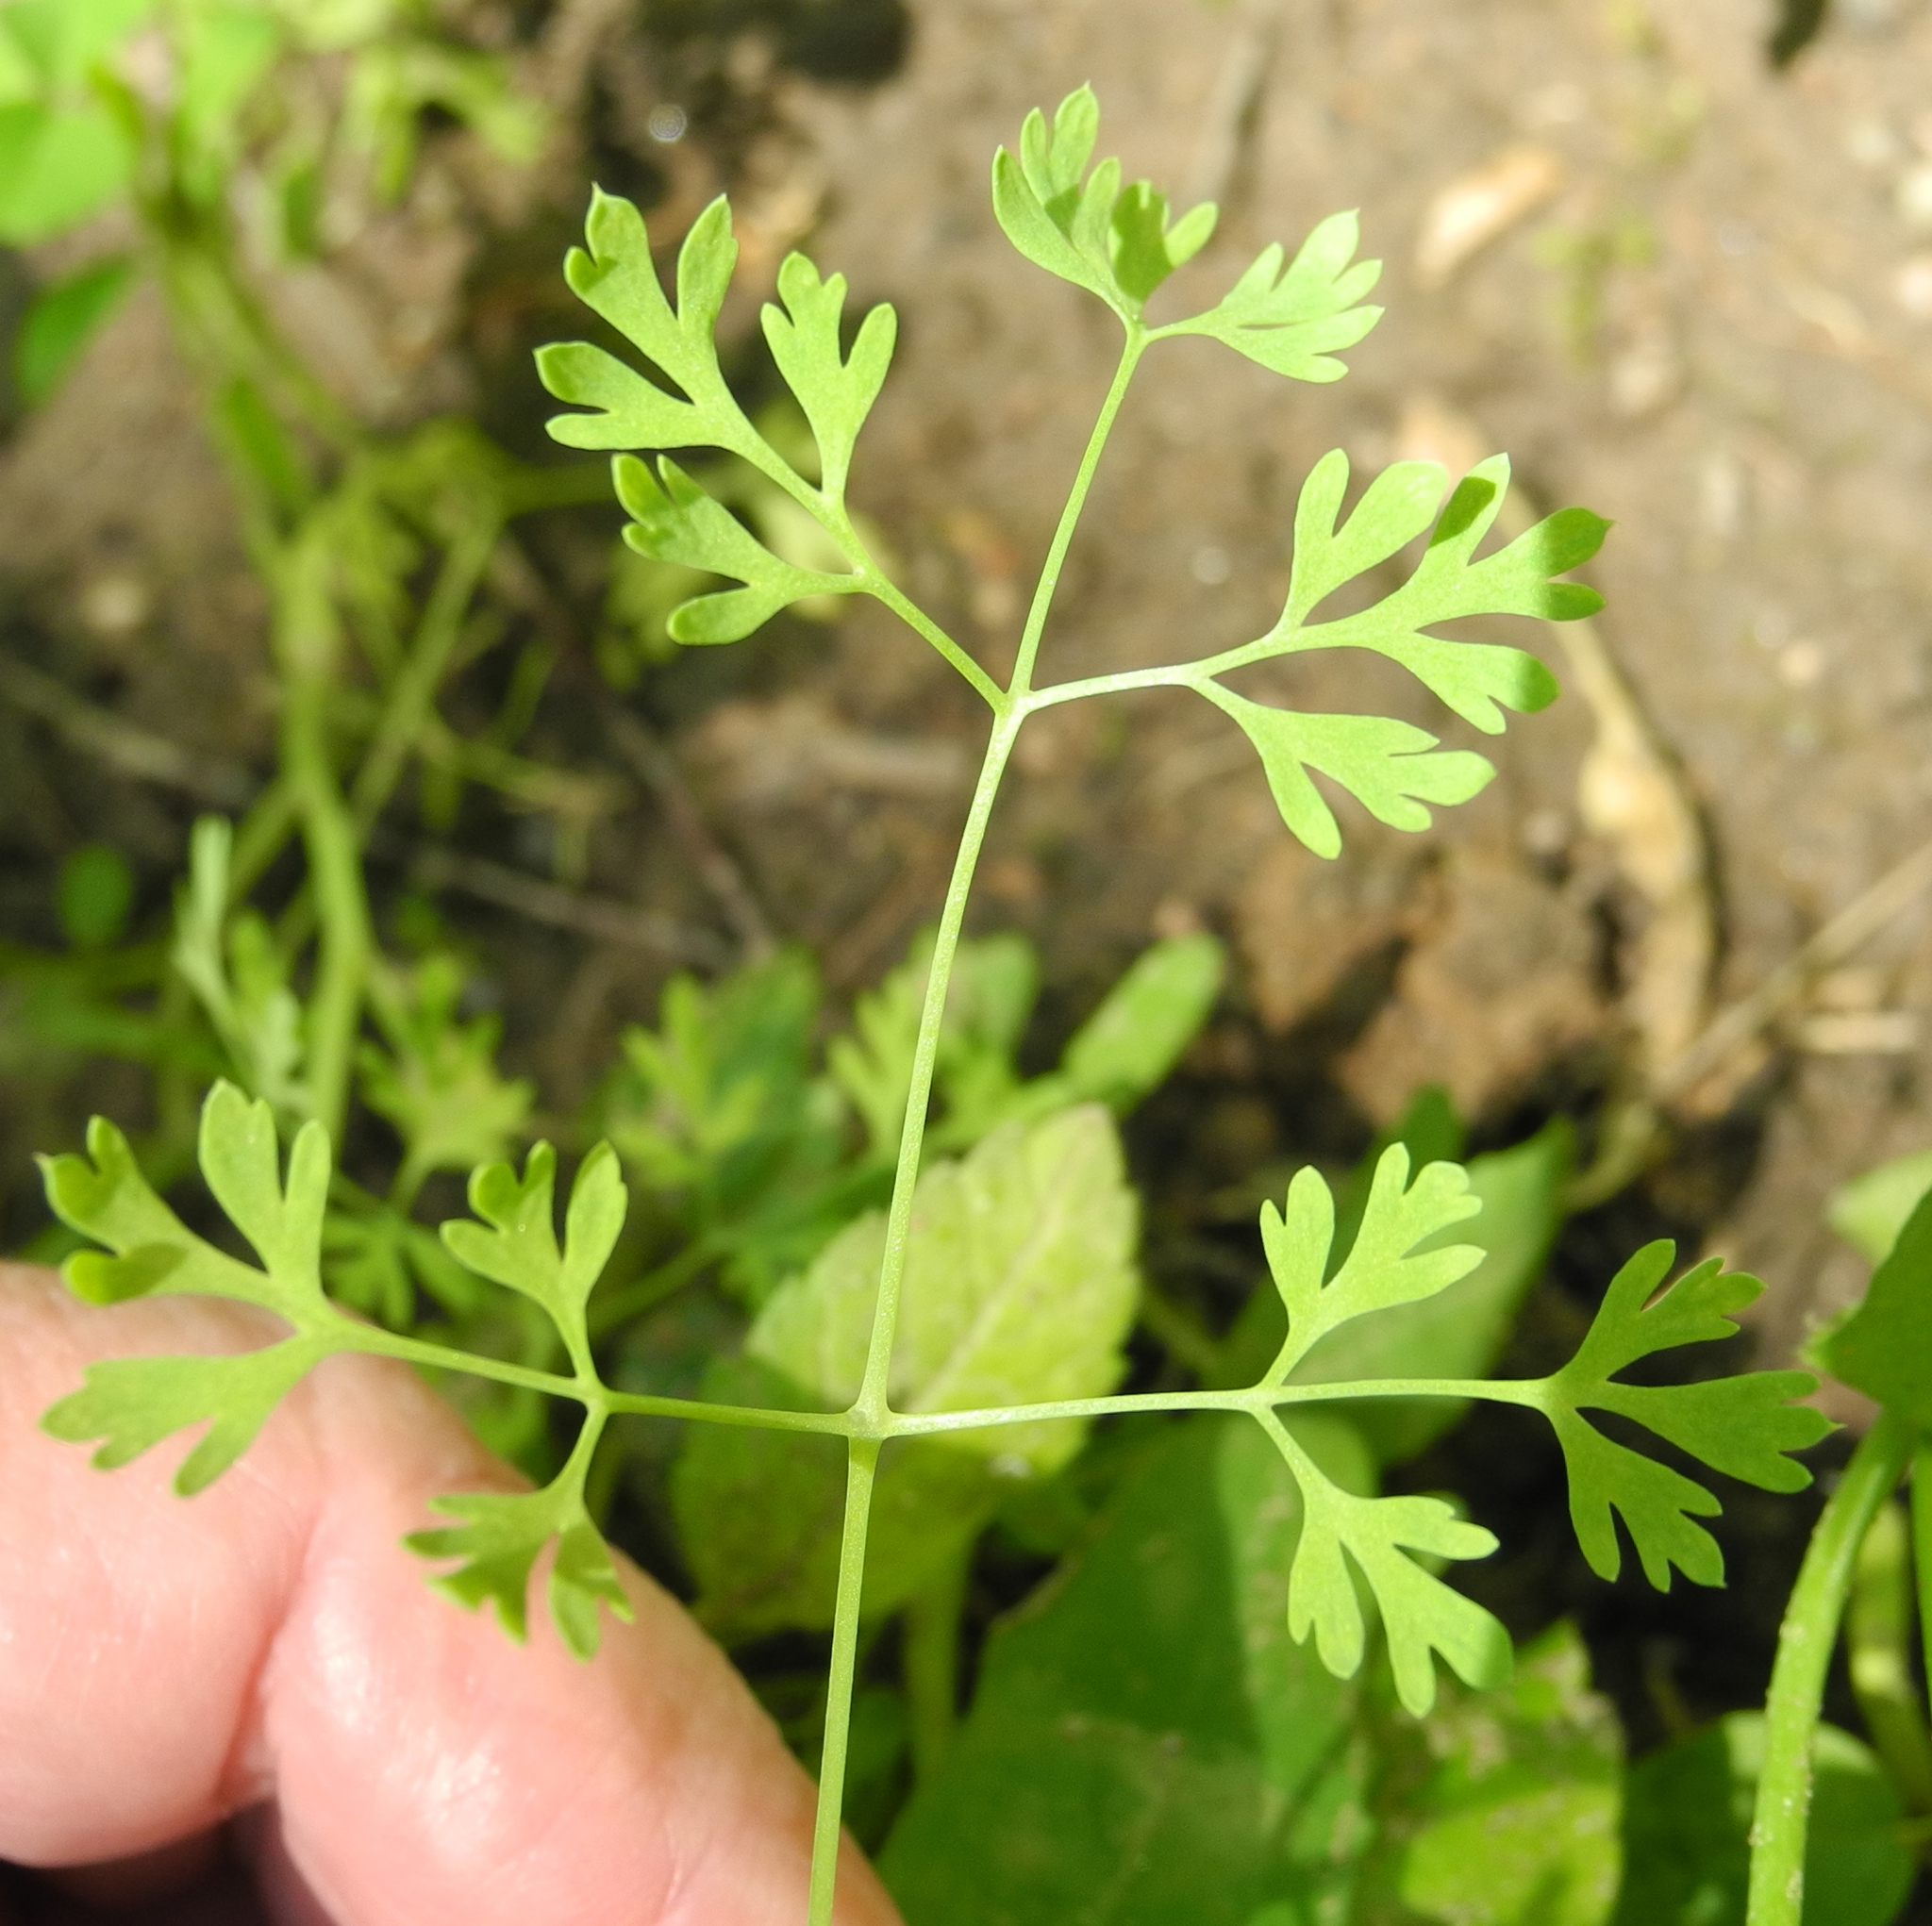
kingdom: Plantae
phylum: Tracheophyta
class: Magnoliopsida
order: Ranunculales
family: Papaveraceae
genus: Fumaria
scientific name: Fumaria officinalis
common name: Common fumitory
